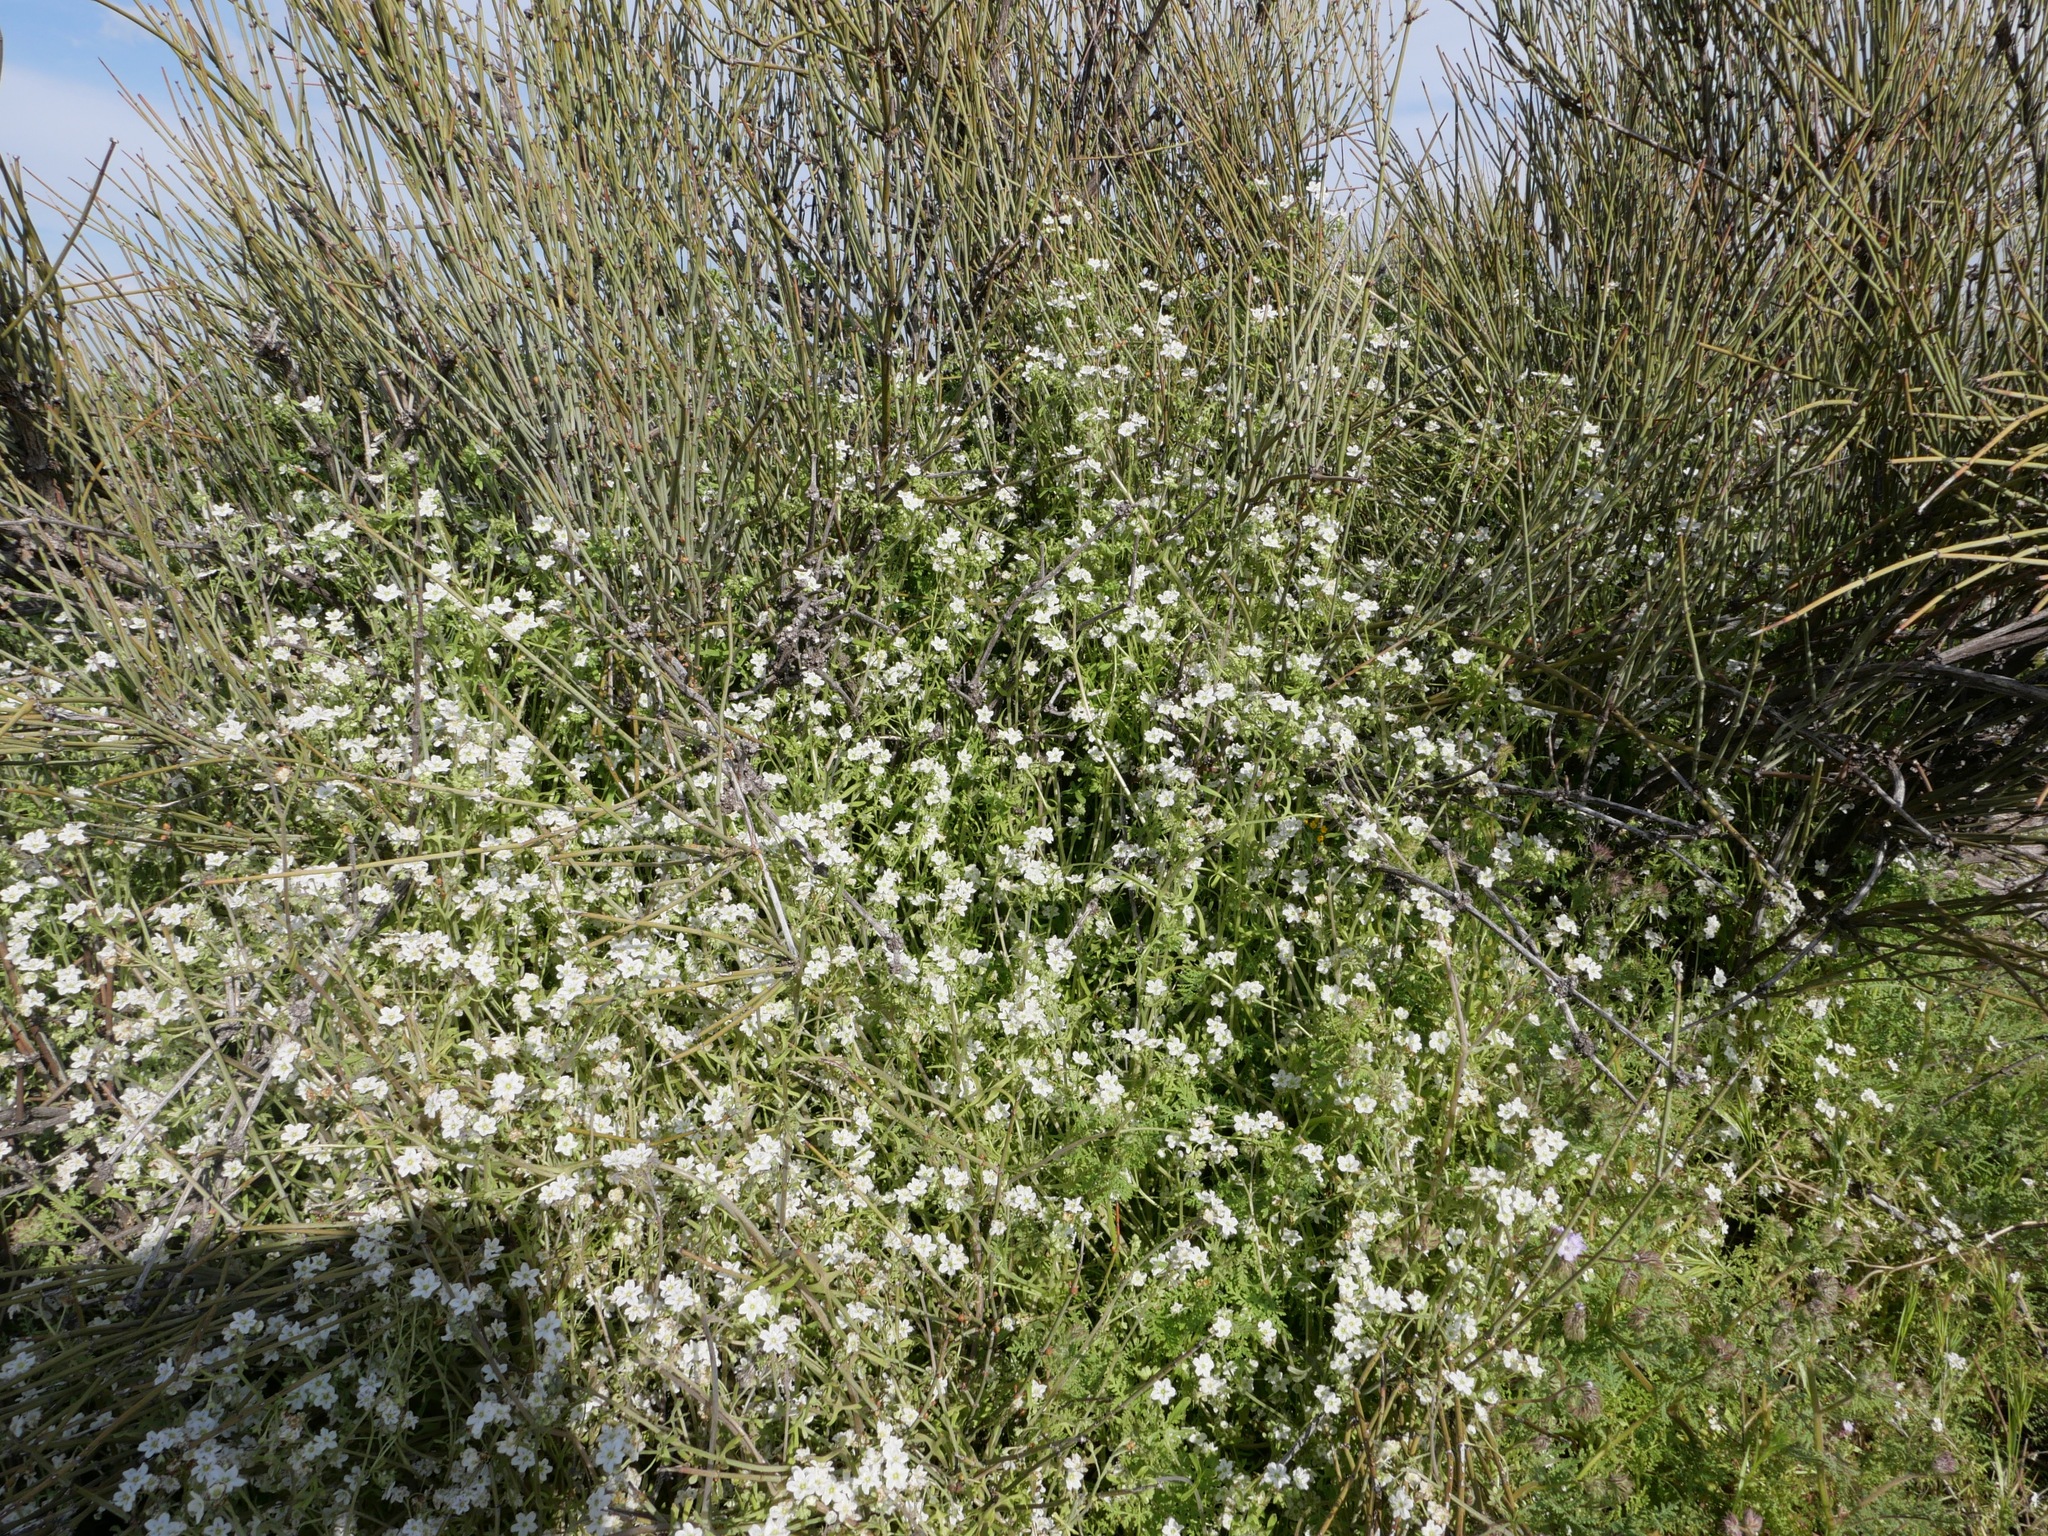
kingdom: Plantae
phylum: Tracheophyta
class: Magnoliopsida
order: Boraginales
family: Hydrophyllaceae
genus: Pholistoma
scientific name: Pholistoma membranaceum
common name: White fiesta-flower
